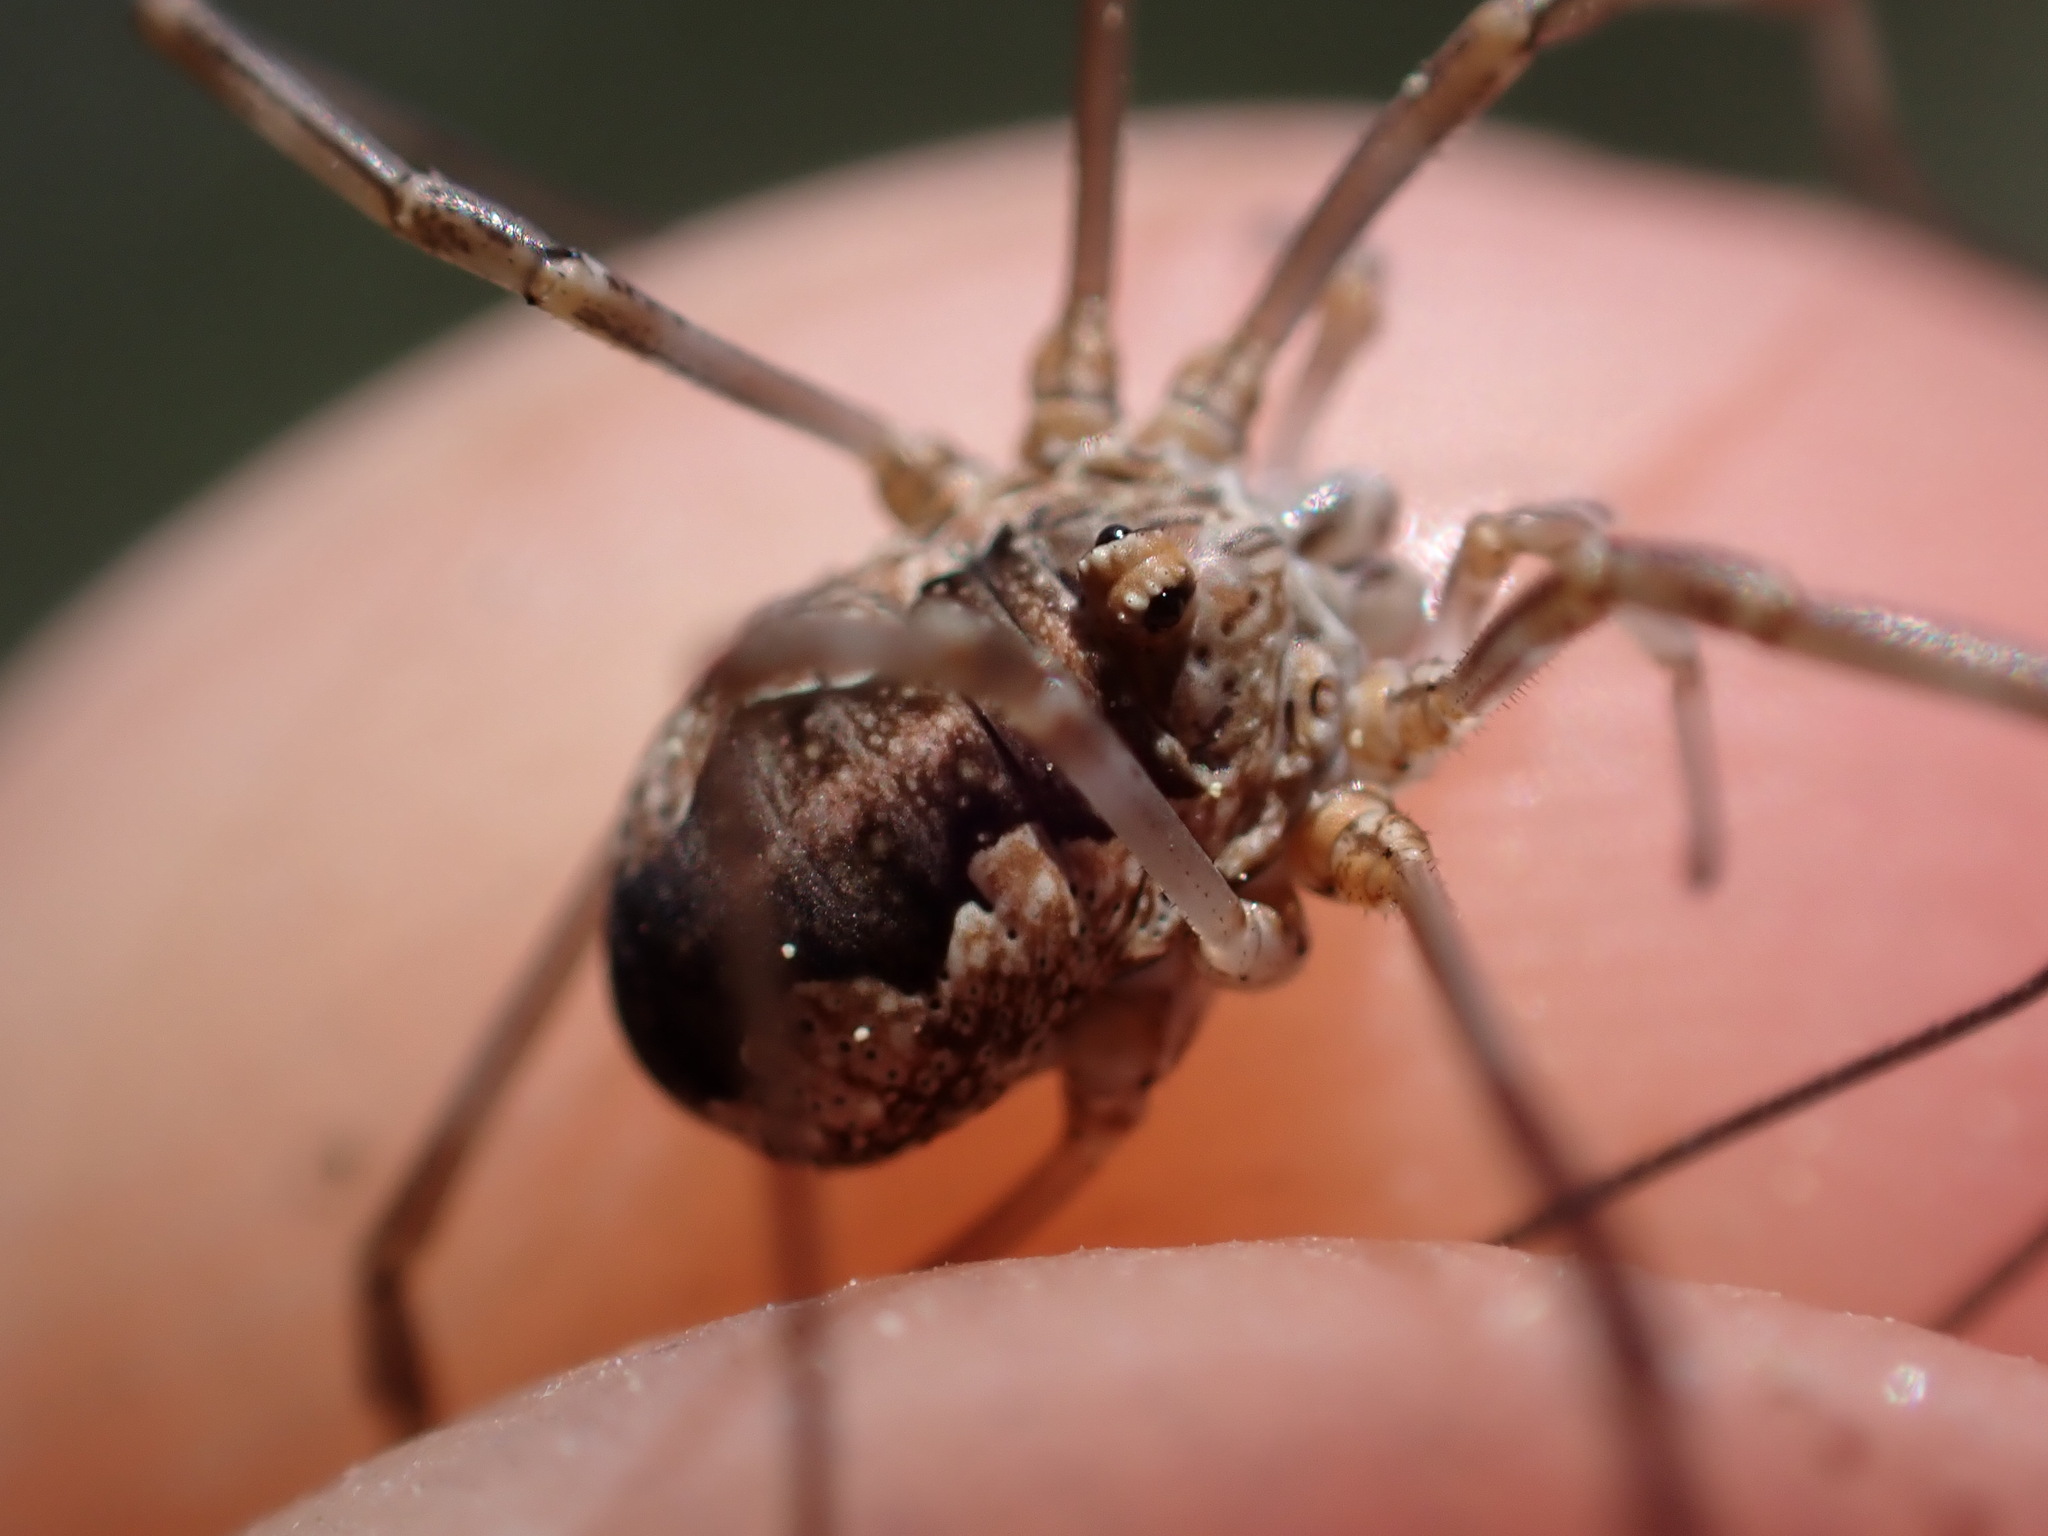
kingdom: Animalia
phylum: Arthropoda
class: Arachnida
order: Opiliones
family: Phalangiidae
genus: Phalangium
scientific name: Phalangium opilio
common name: Daddy longleg
